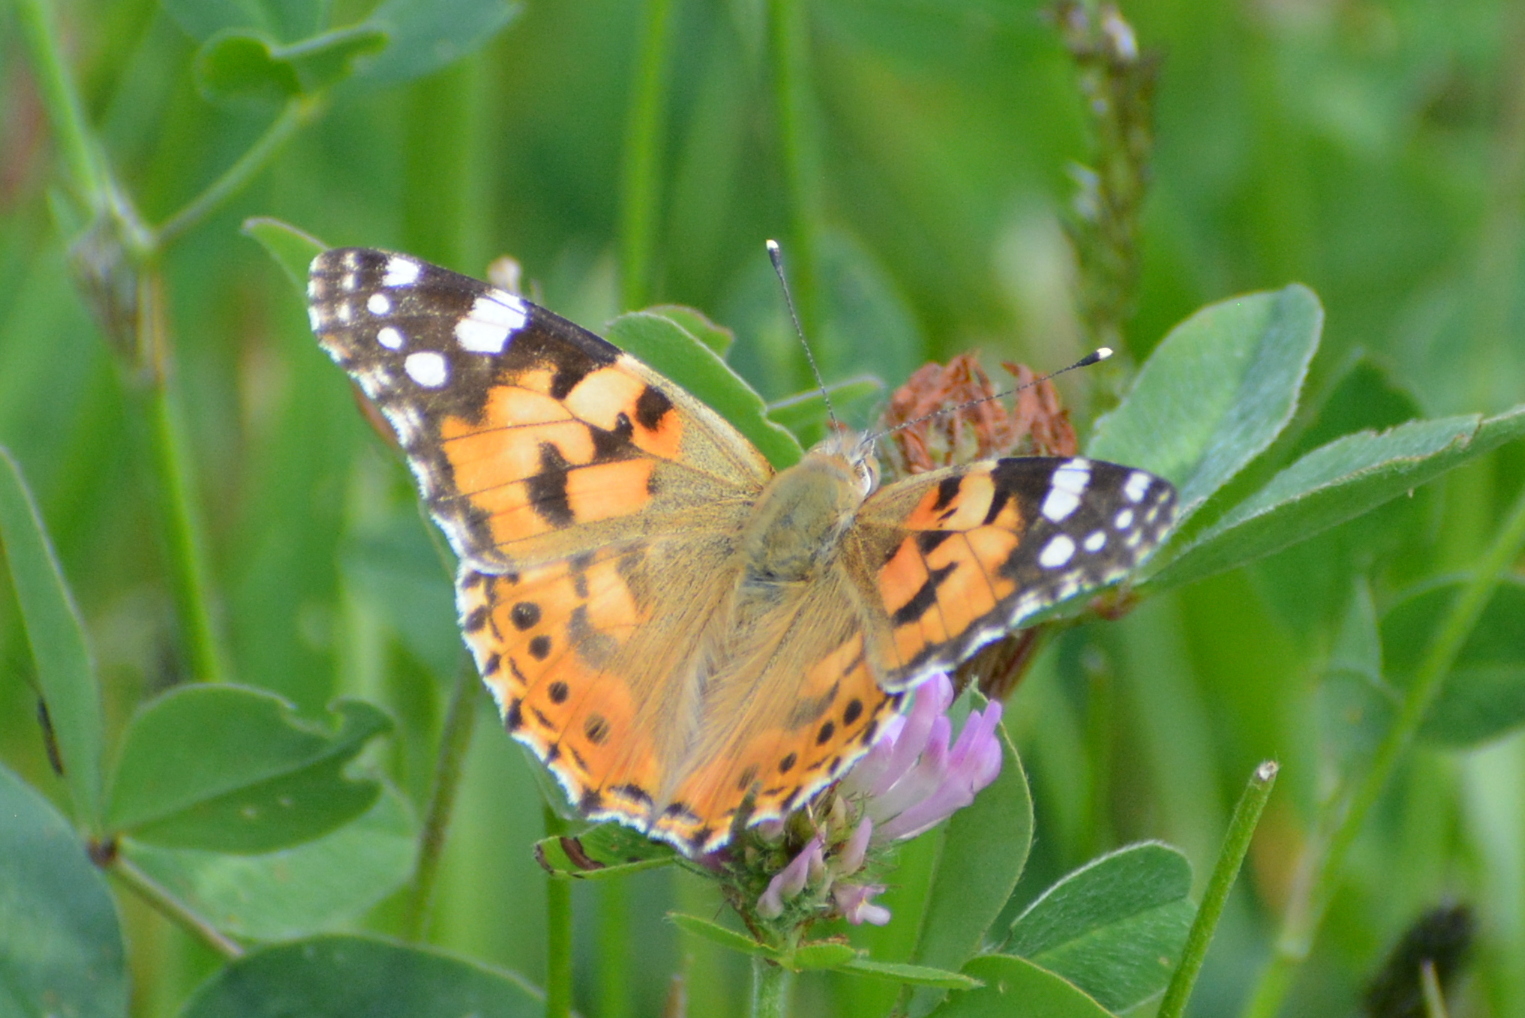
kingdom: Animalia
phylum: Arthropoda
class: Insecta
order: Lepidoptera
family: Nymphalidae
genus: Vanessa
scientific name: Vanessa cardui
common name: Painted lady
